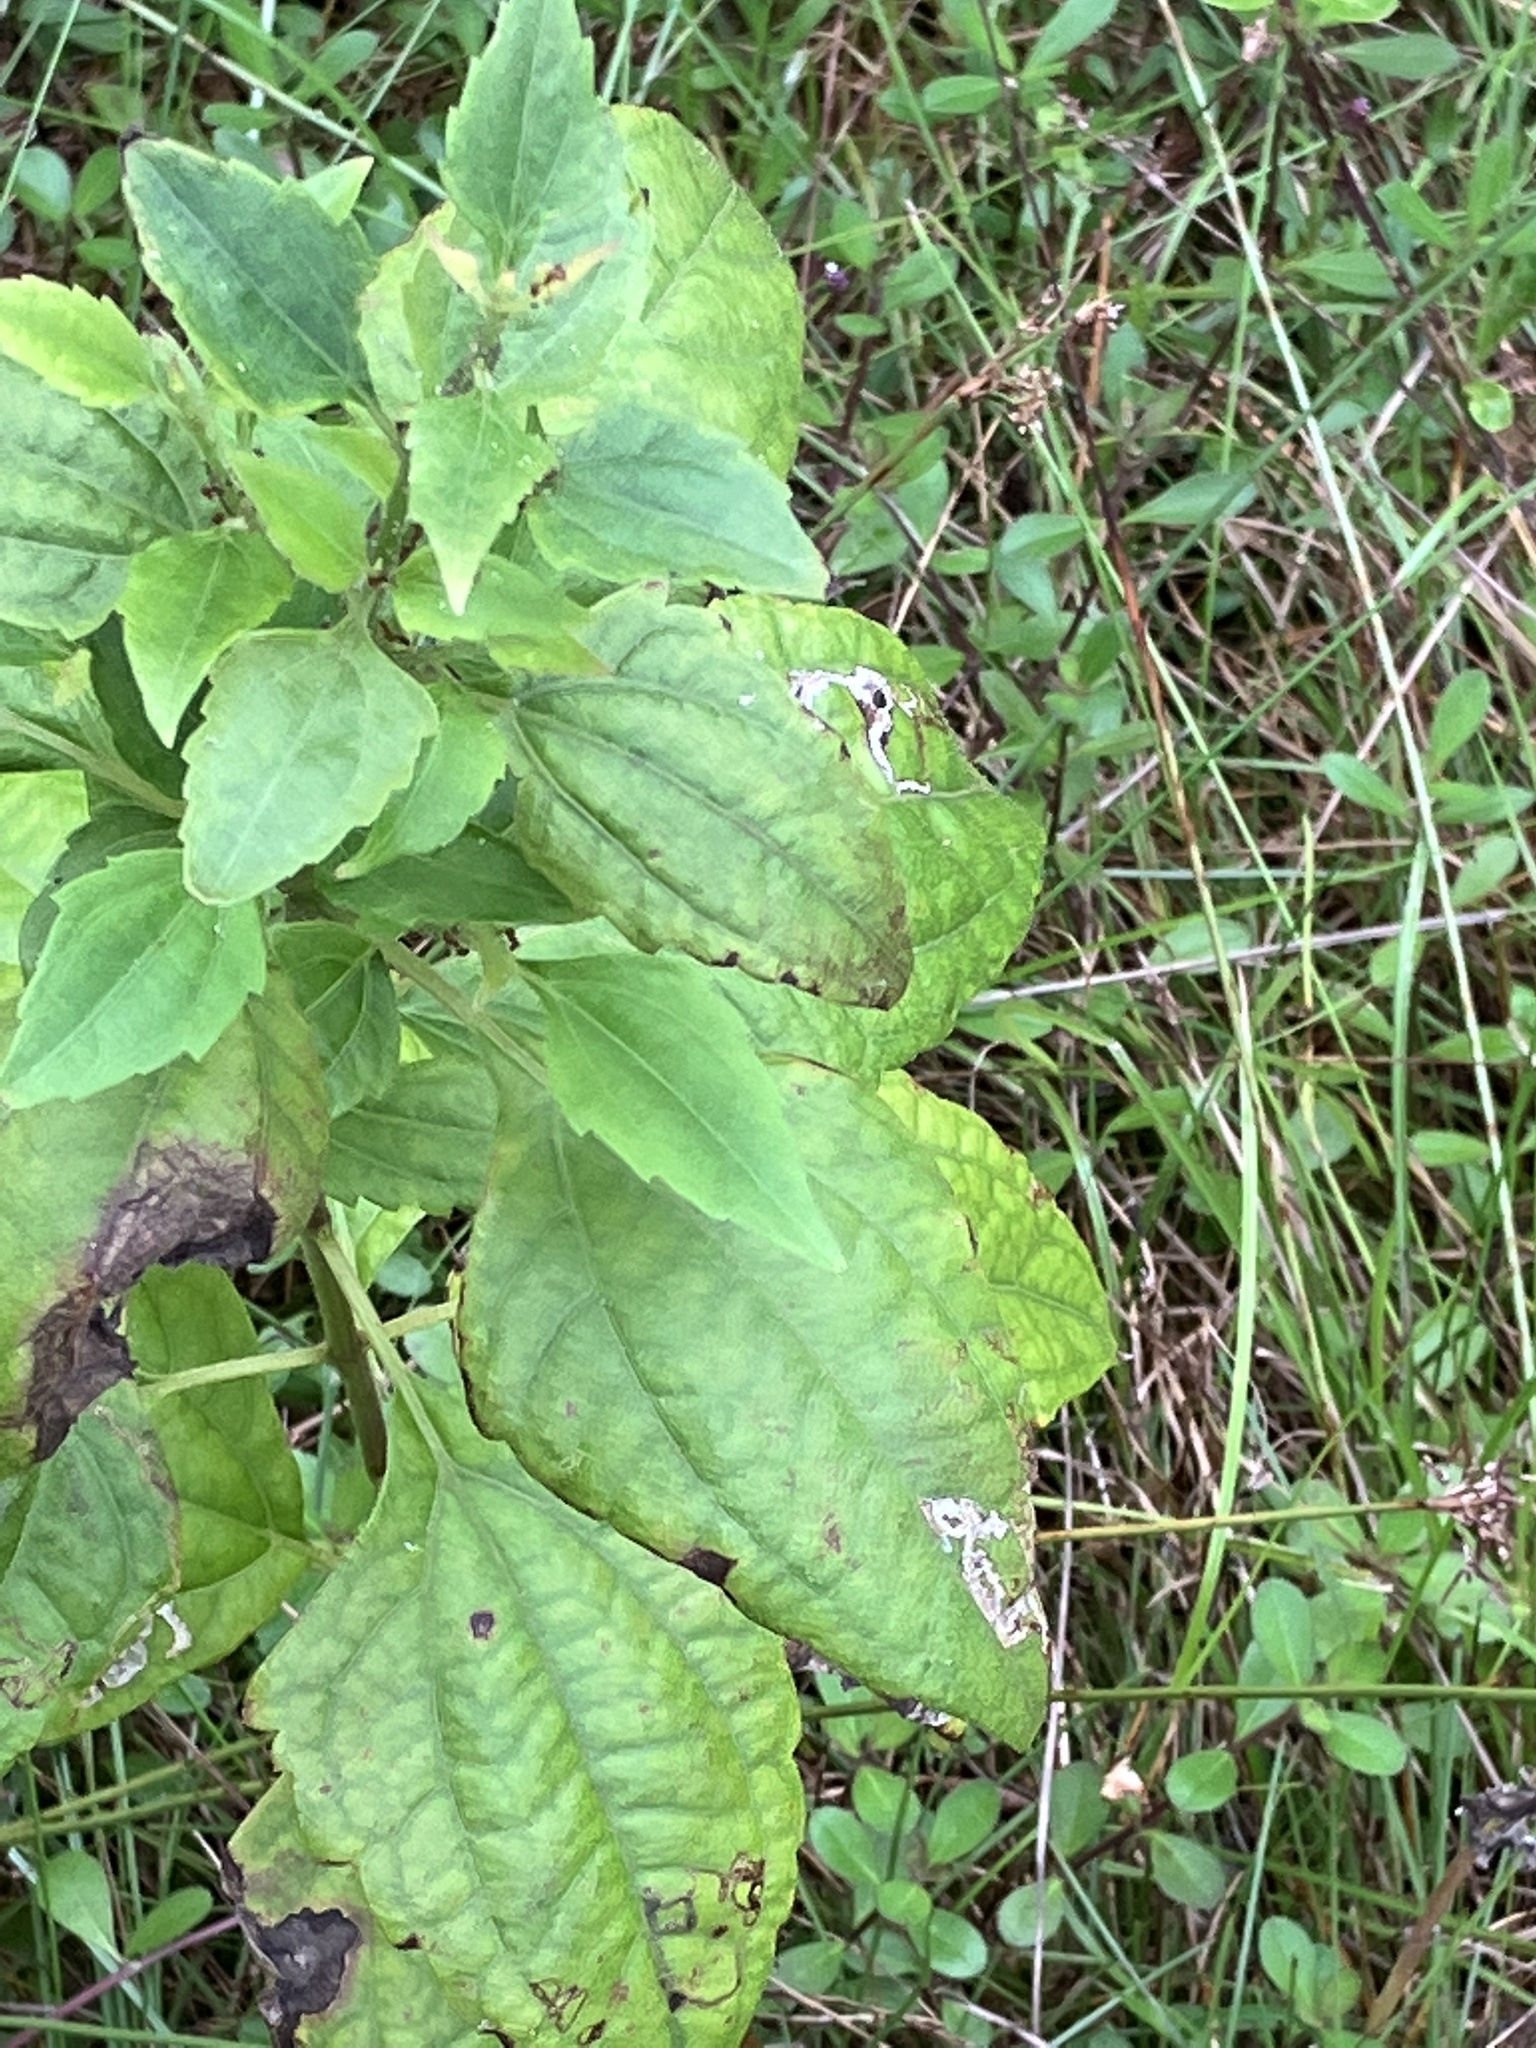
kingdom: Plantae
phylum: Tracheophyta
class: Magnoliopsida
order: Asterales
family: Asteraceae
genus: Chromolaena
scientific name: Chromolaena odorata
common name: Siamweed
